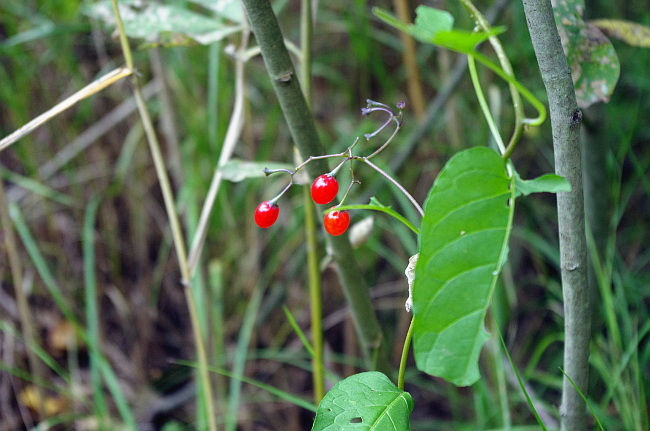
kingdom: Plantae
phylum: Tracheophyta
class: Magnoliopsida
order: Solanales
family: Solanaceae
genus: Solanum
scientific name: Solanum dulcamara
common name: Climbing nightshade
